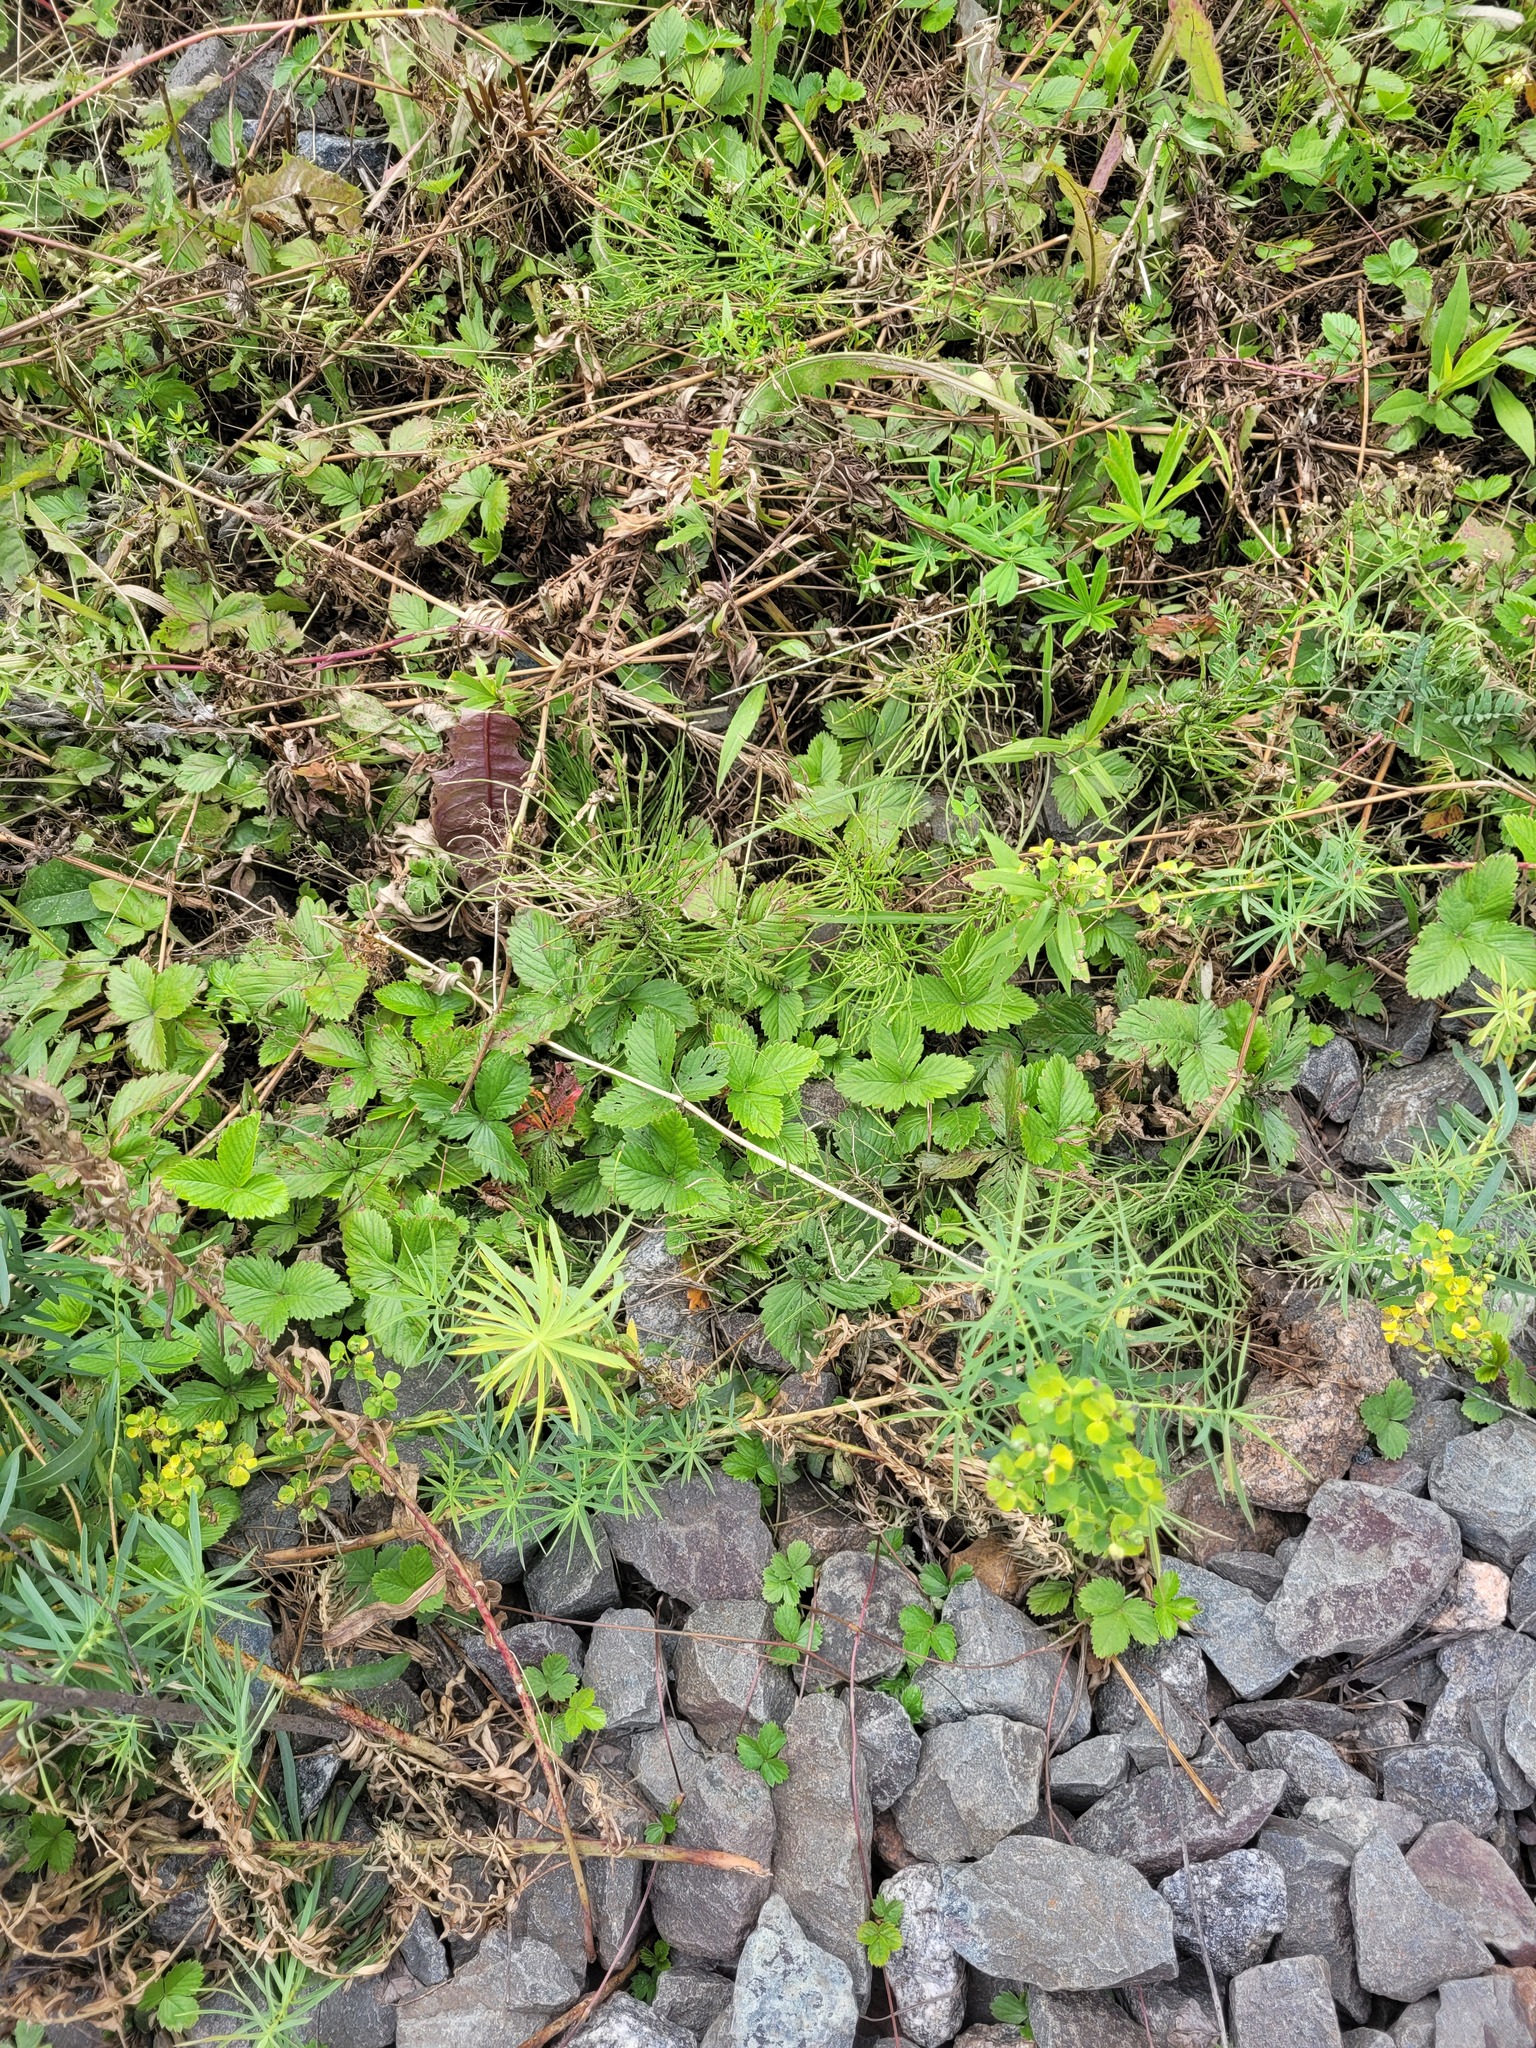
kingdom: Plantae
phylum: Tracheophyta
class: Magnoliopsida
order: Rosales
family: Rosaceae
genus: Fragaria
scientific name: Fragaria vesca
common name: Wild strawberry
